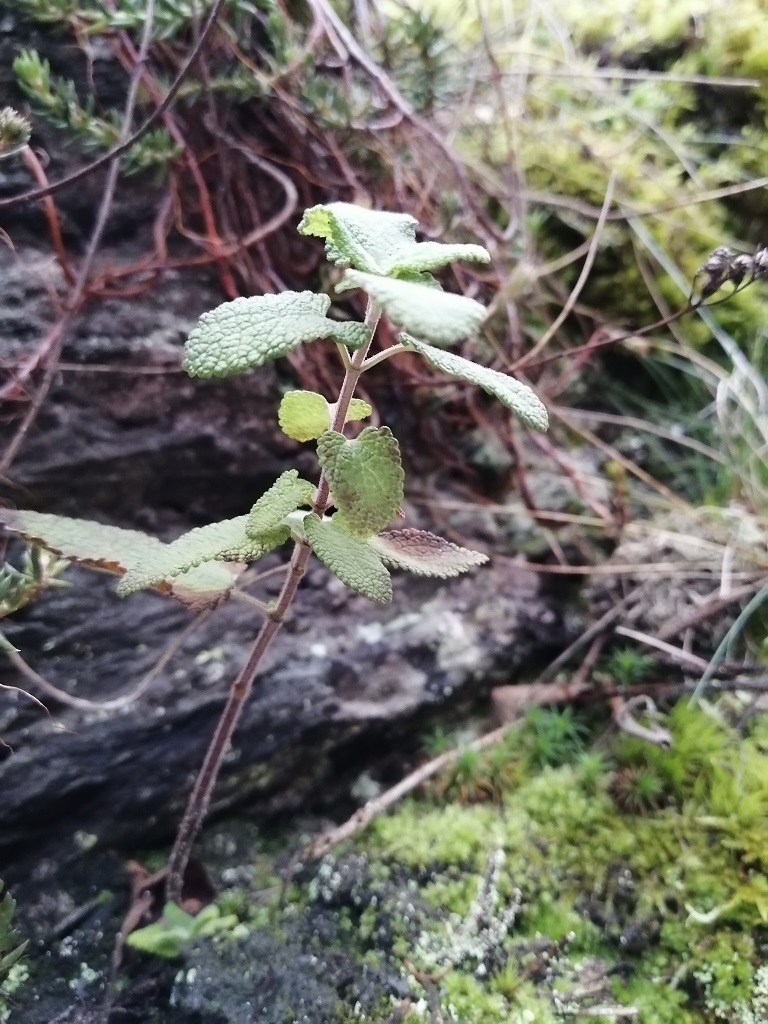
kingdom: Plantae
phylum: Tracheophyta
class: Magnoliopsida
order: Lamiales
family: Lamiaceae
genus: Teucrium
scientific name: Teucrium scorodonia
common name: Woodland germander
